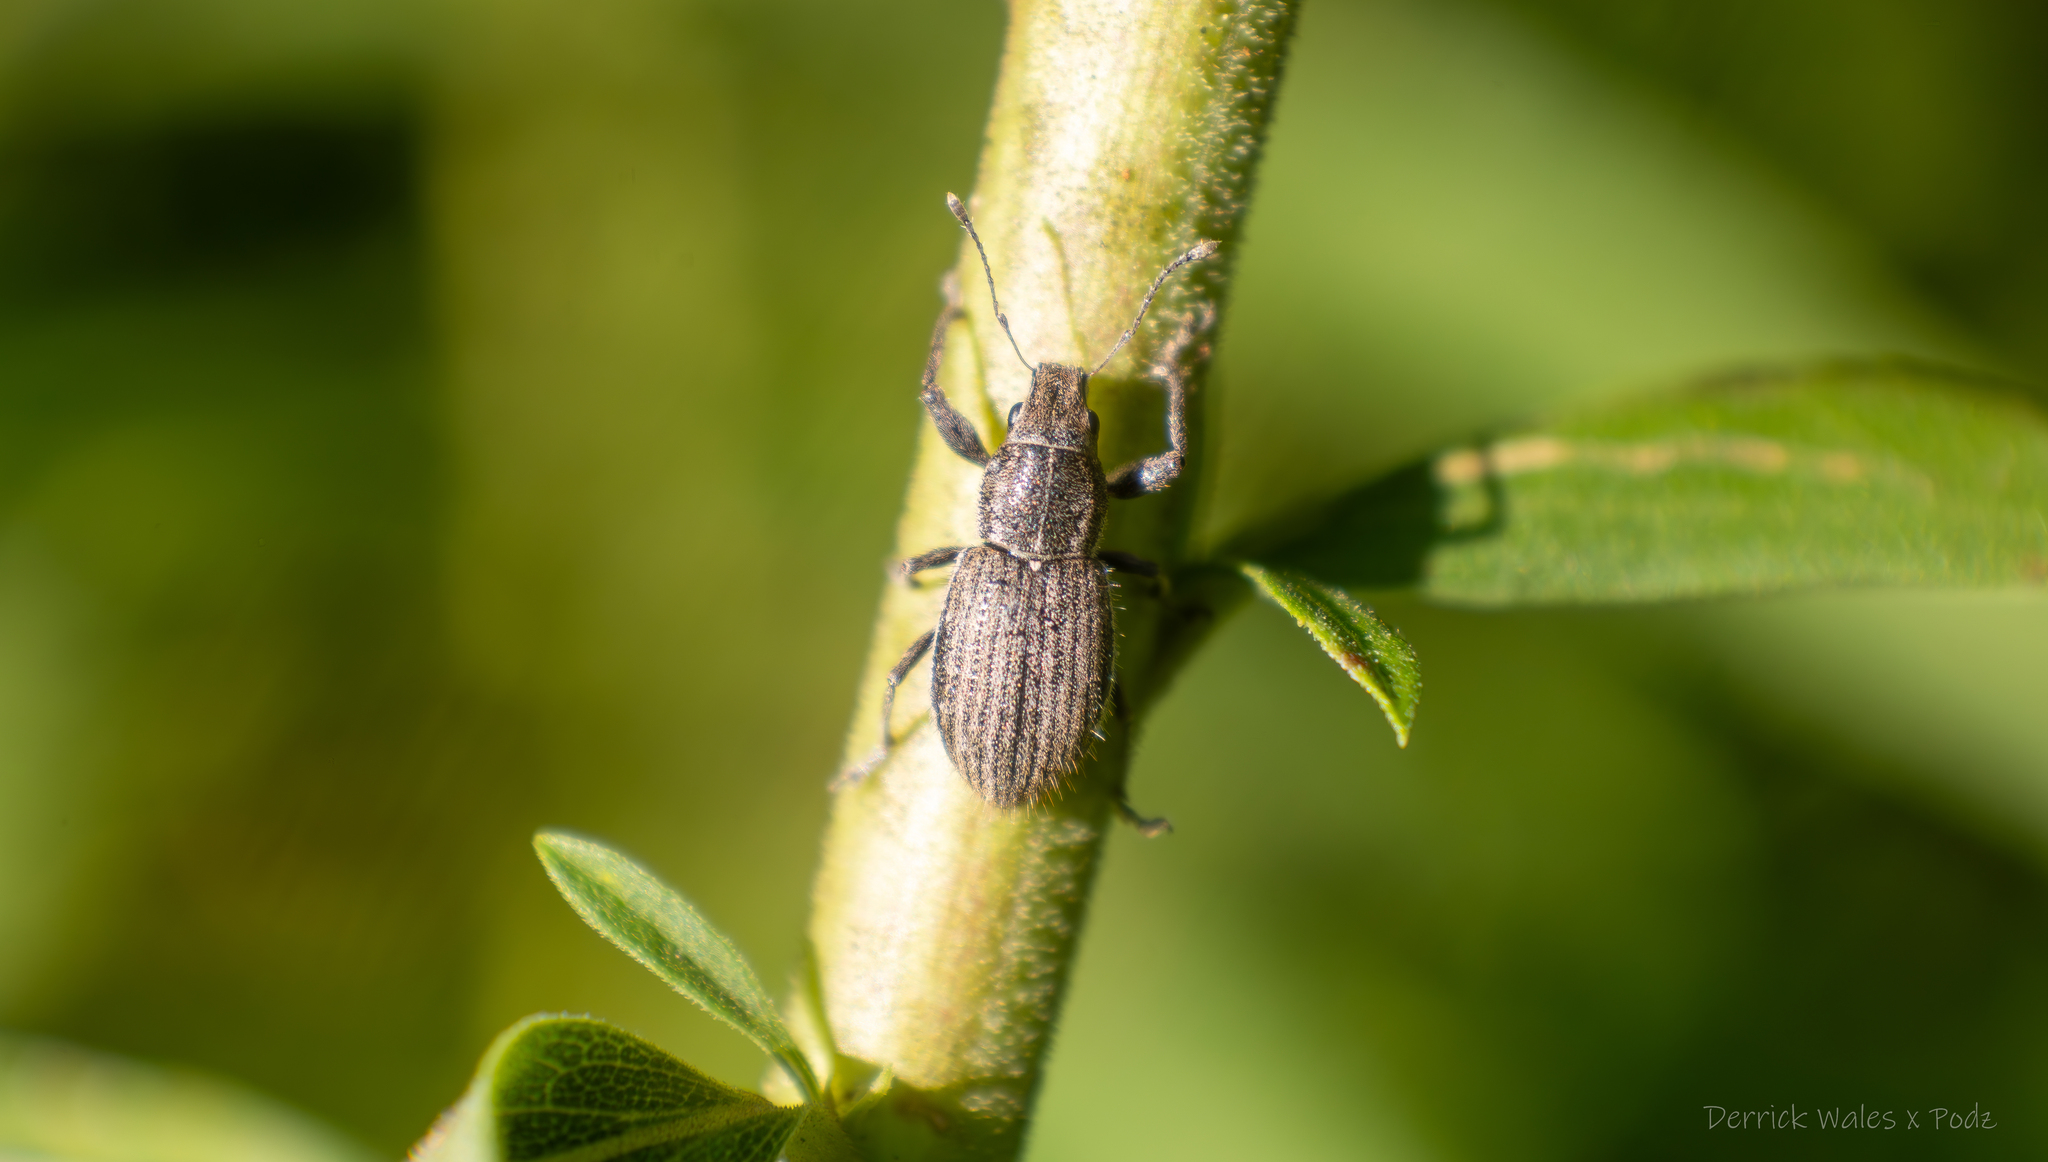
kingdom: Animalia
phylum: Arthropoda
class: Insecta
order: Coleoptera
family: Curculionidae
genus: Naupactus
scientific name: Naupactus leucoloma
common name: Whitefringed beetle
